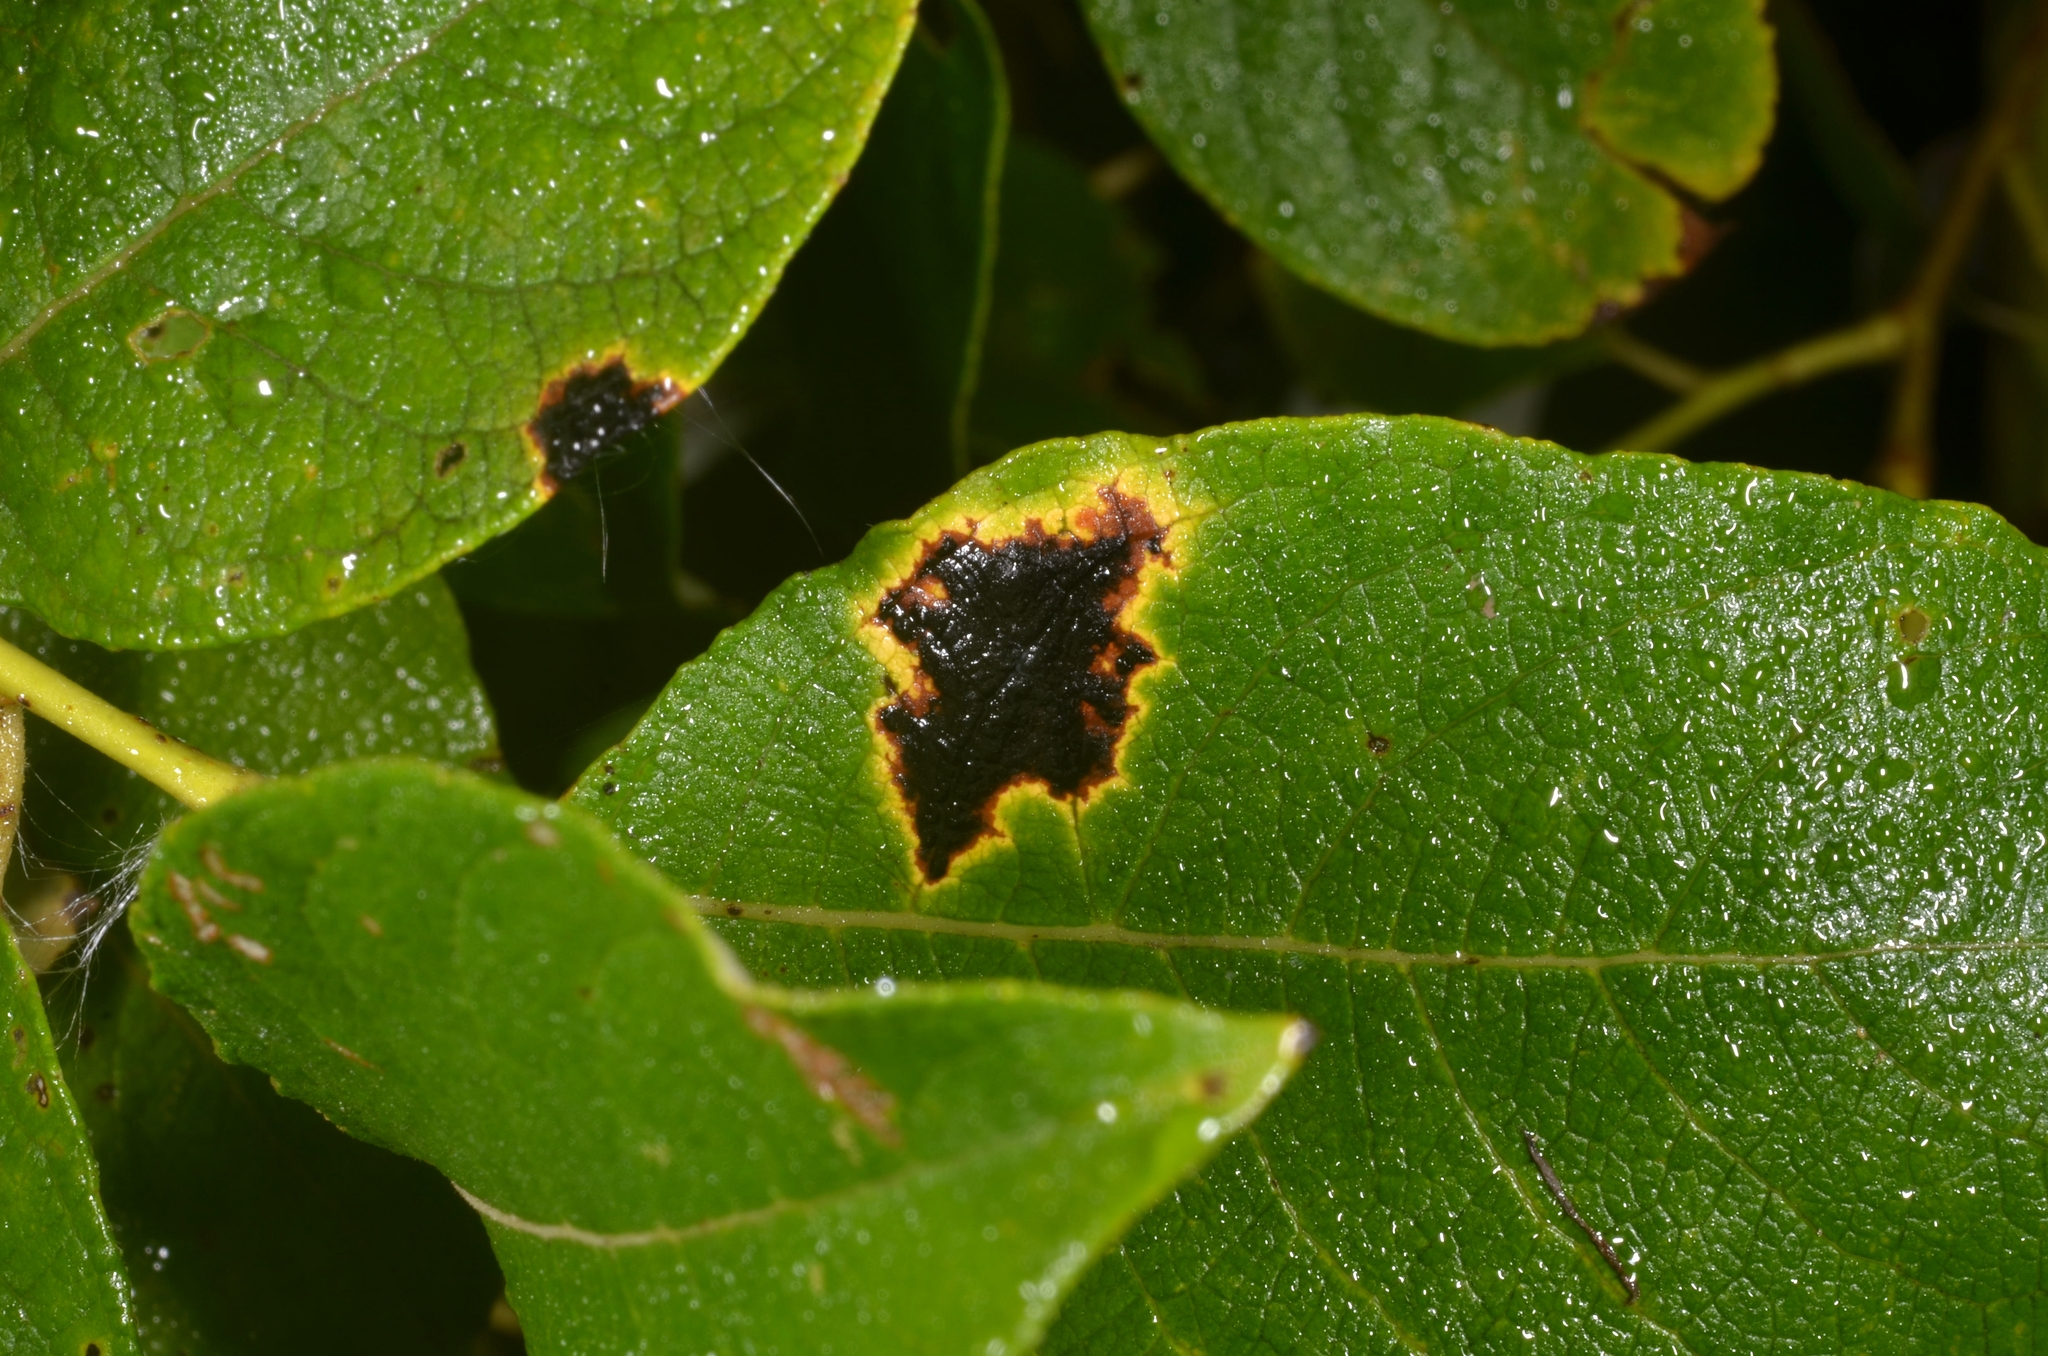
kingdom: Fungi
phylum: Ascomycota
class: Leotiomycetes
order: Rhytismatales
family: Rhytismataceae
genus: Rhytisma
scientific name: Rhytisma salicinum
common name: Willow tarspot
